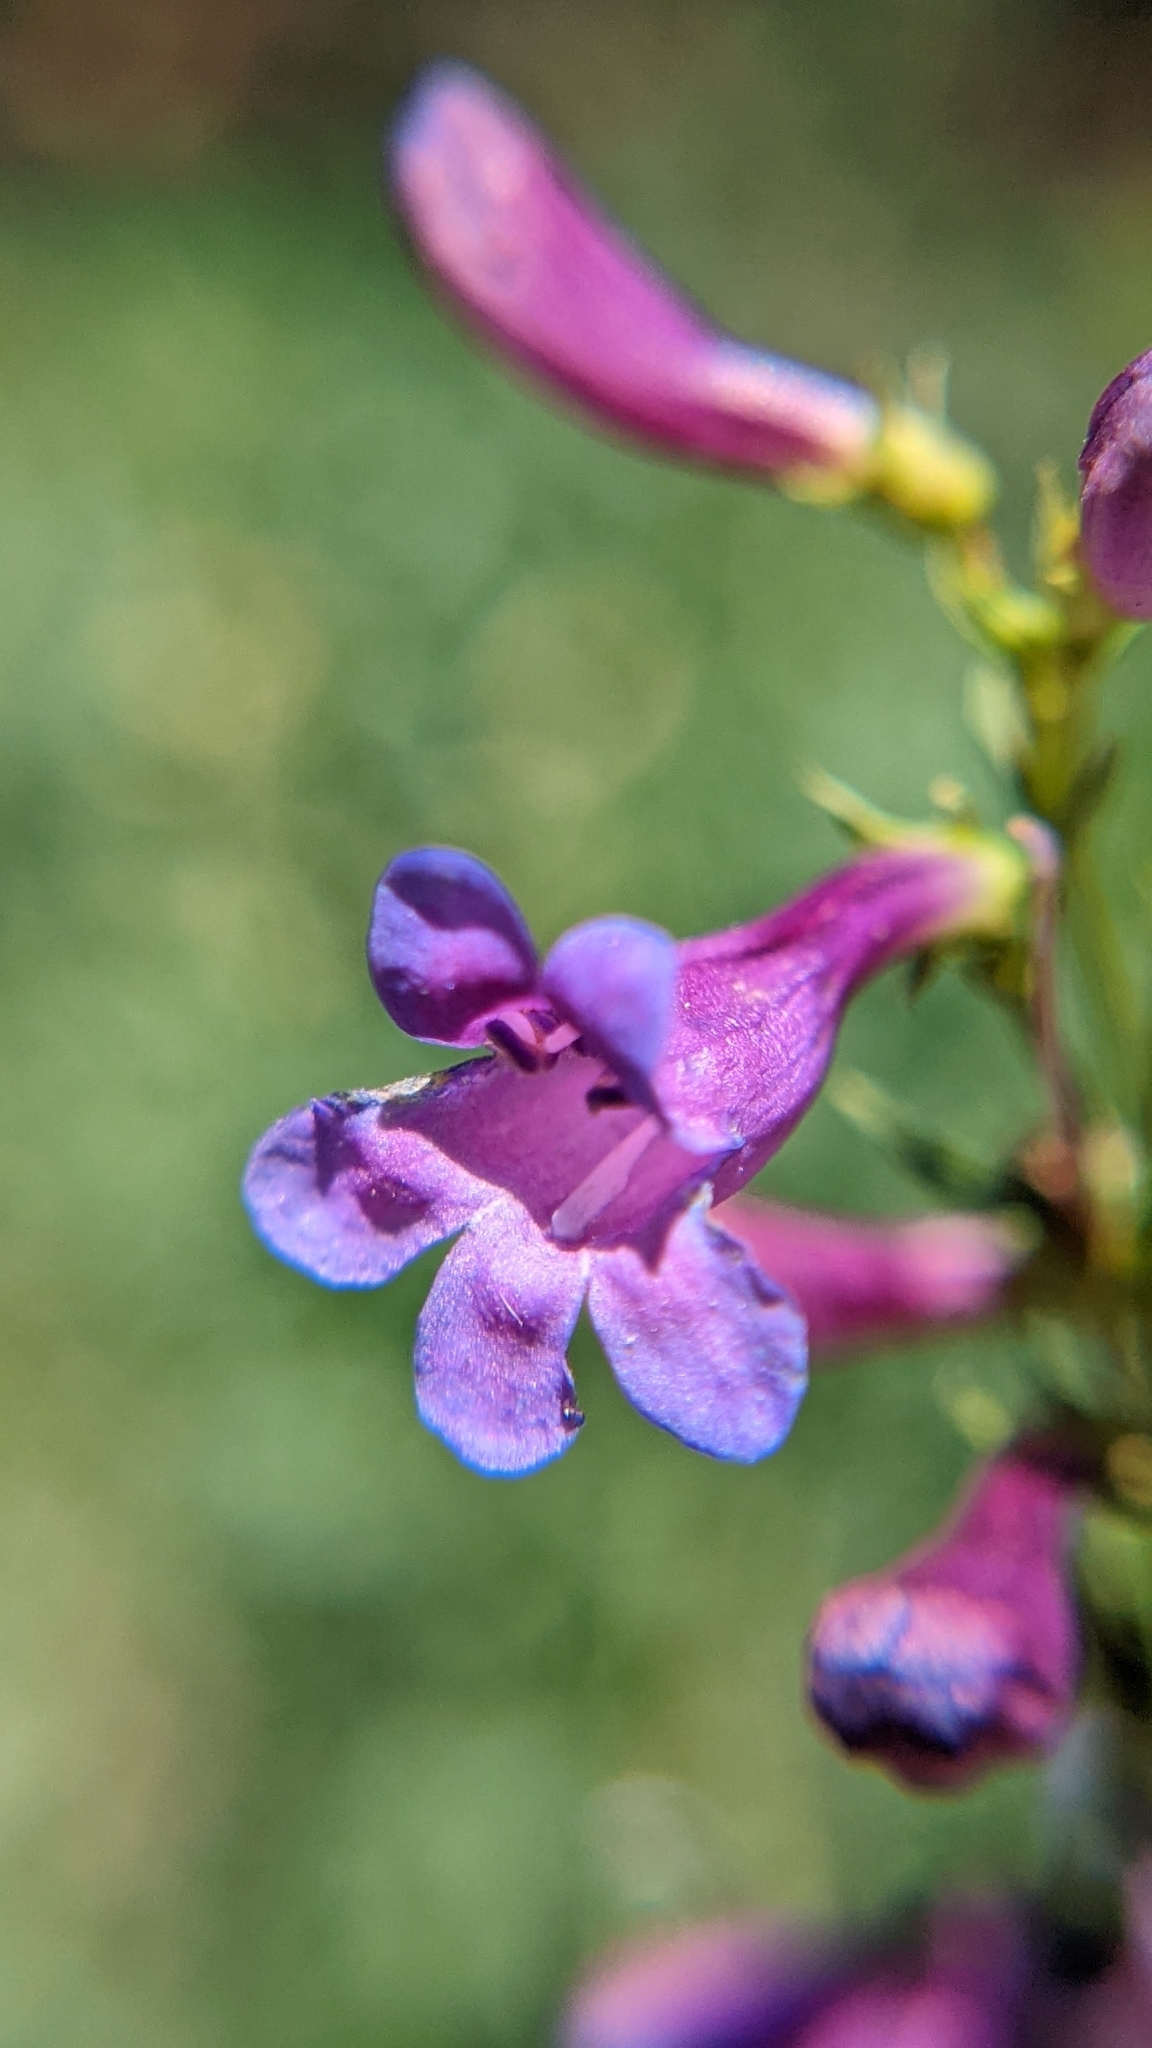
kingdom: Plantae
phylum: Tracheophyta
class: Magnoliopsida
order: Lamiales
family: Plantaginaceae
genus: Penstemon
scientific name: Penstemon leonardii
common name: Leonard's penstemon
